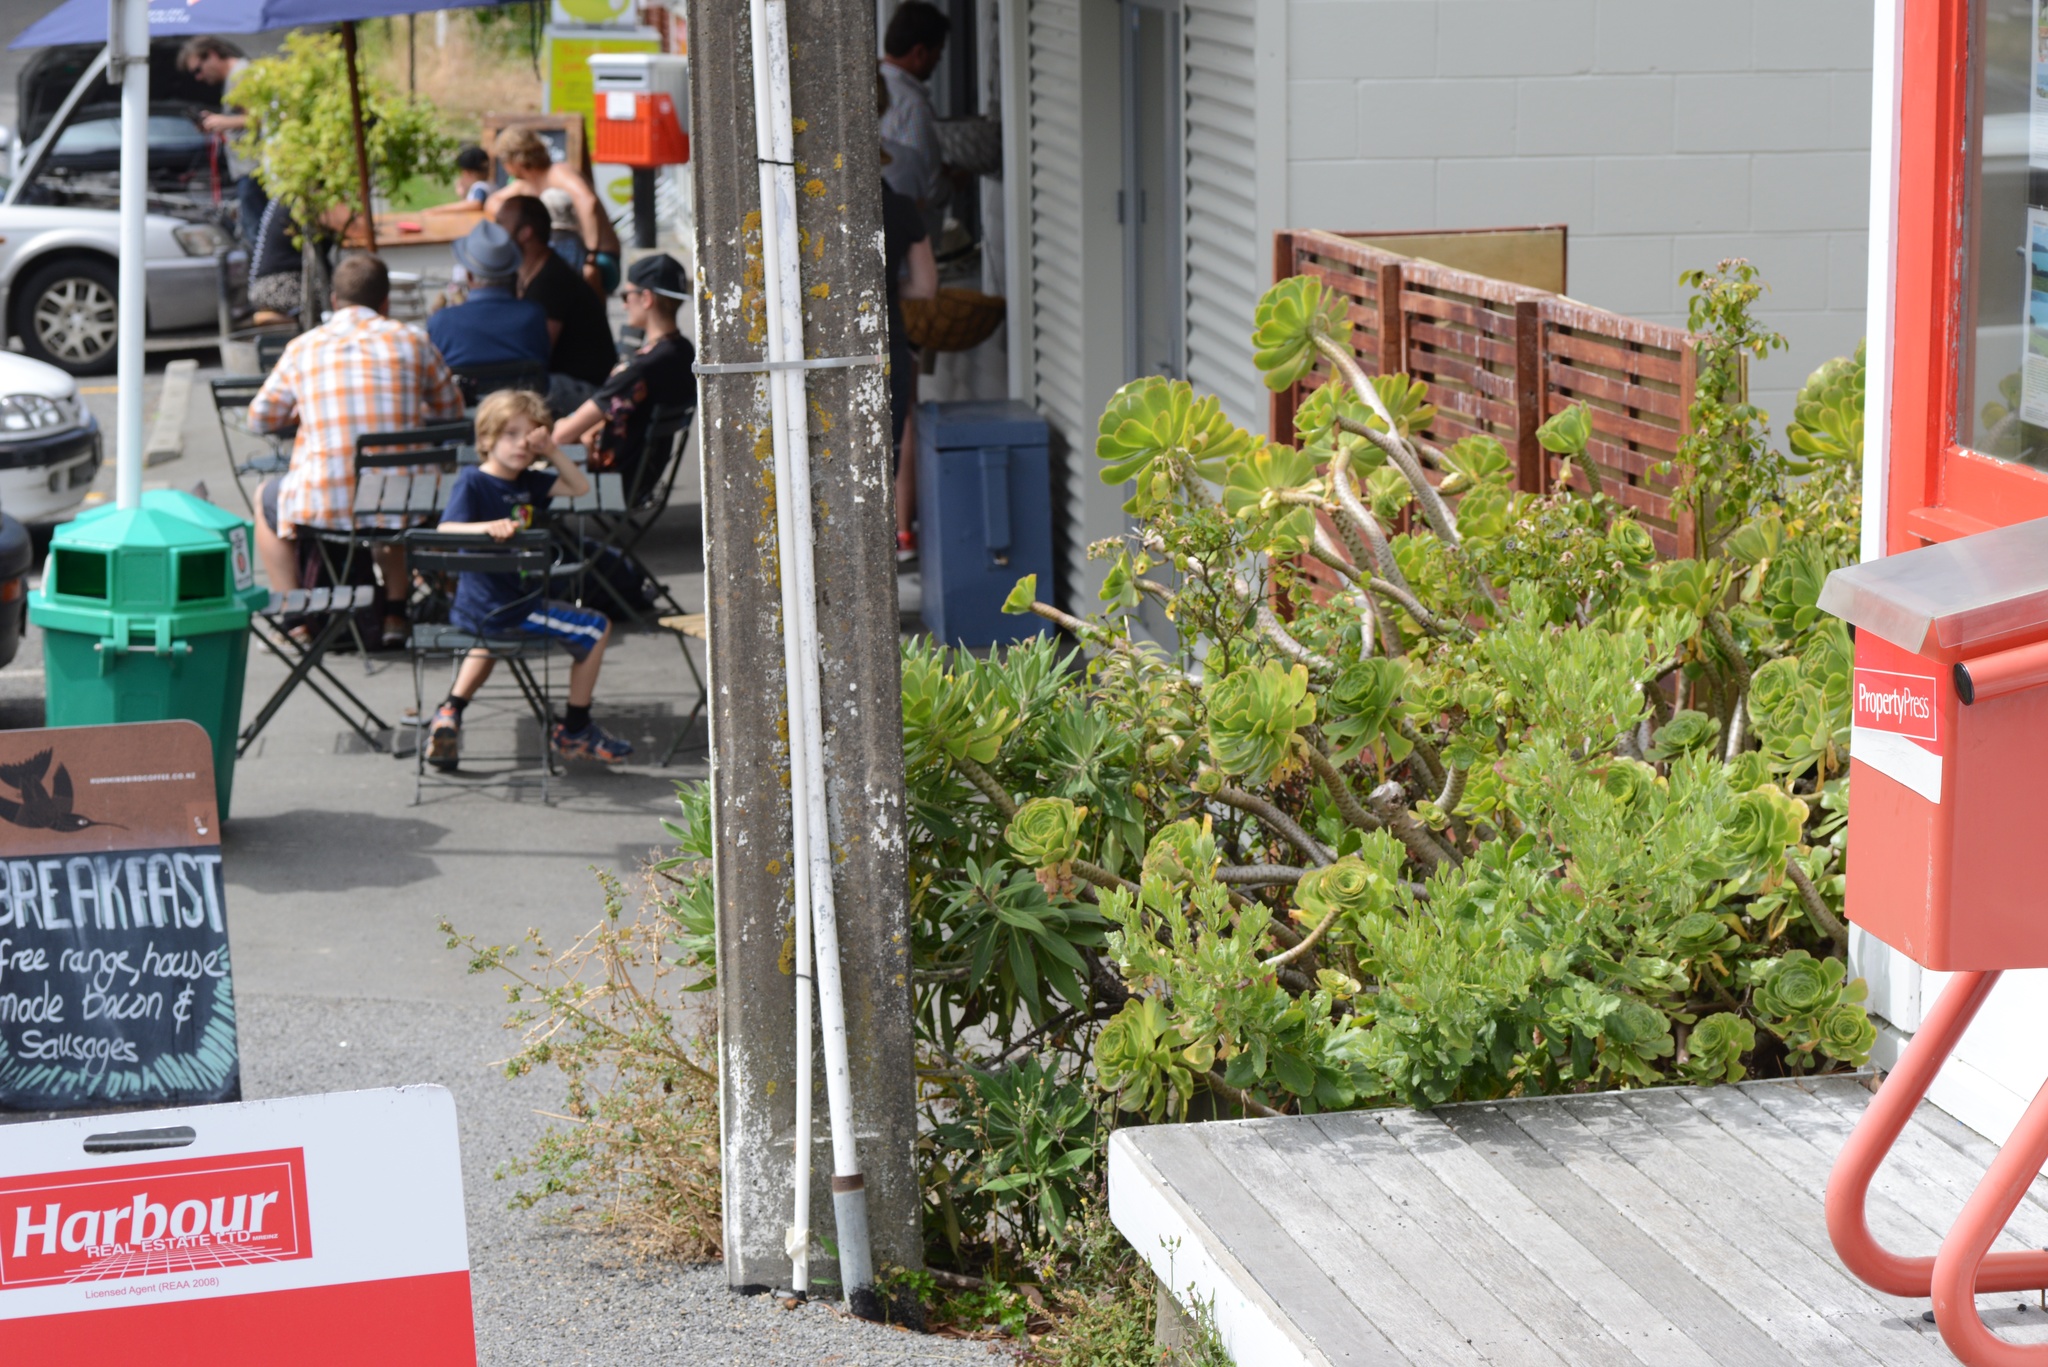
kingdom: Plantae
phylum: Tracheophyta
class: Magnoliopsida
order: Asterales
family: Asteraceae
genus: Osteospermum
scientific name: Osteospermum moniliferum
